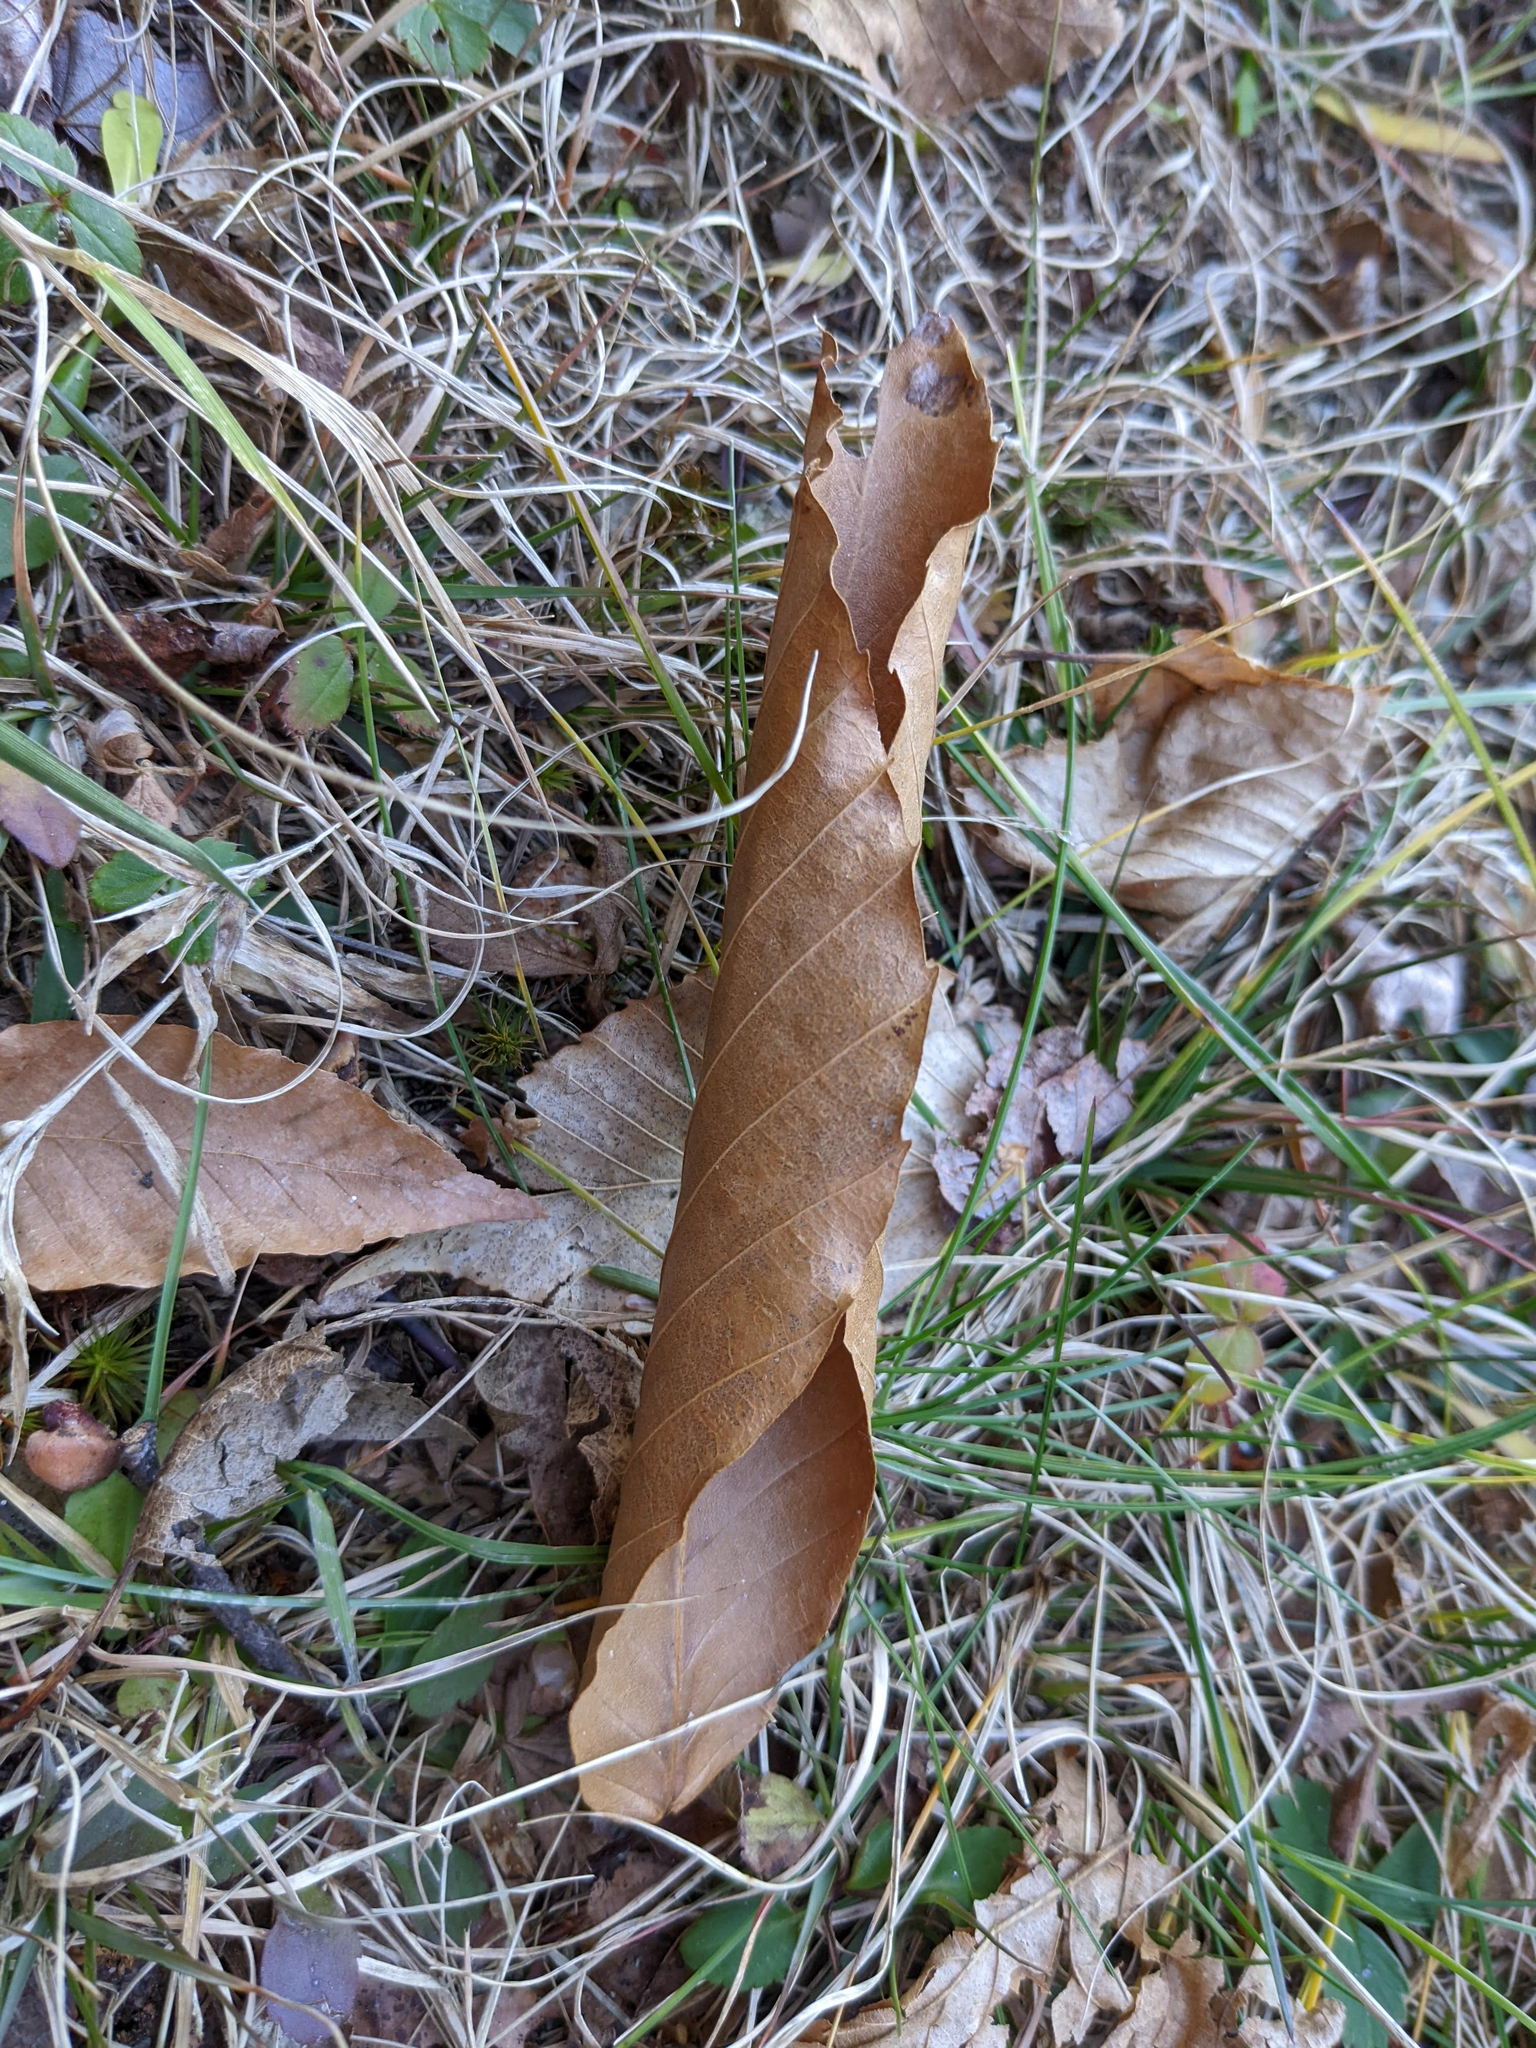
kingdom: Plantae
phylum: Tracheophyta
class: Magnoliopsida
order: Fagales
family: Fagaceae
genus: Fagus
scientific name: Fagus grandifolia
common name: American beech
